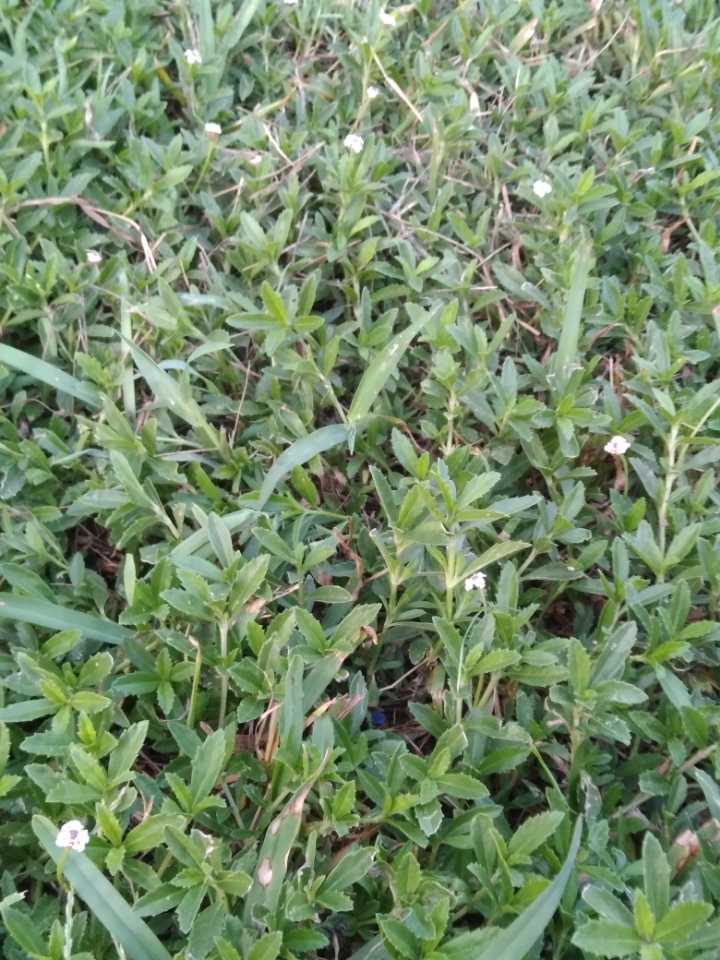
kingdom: Plantae
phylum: Tracheophyta
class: Magnoliopsida
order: Lamiales
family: Verbenaceae
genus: Phyla
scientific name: Phyla nodiflora
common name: Frogfruit
